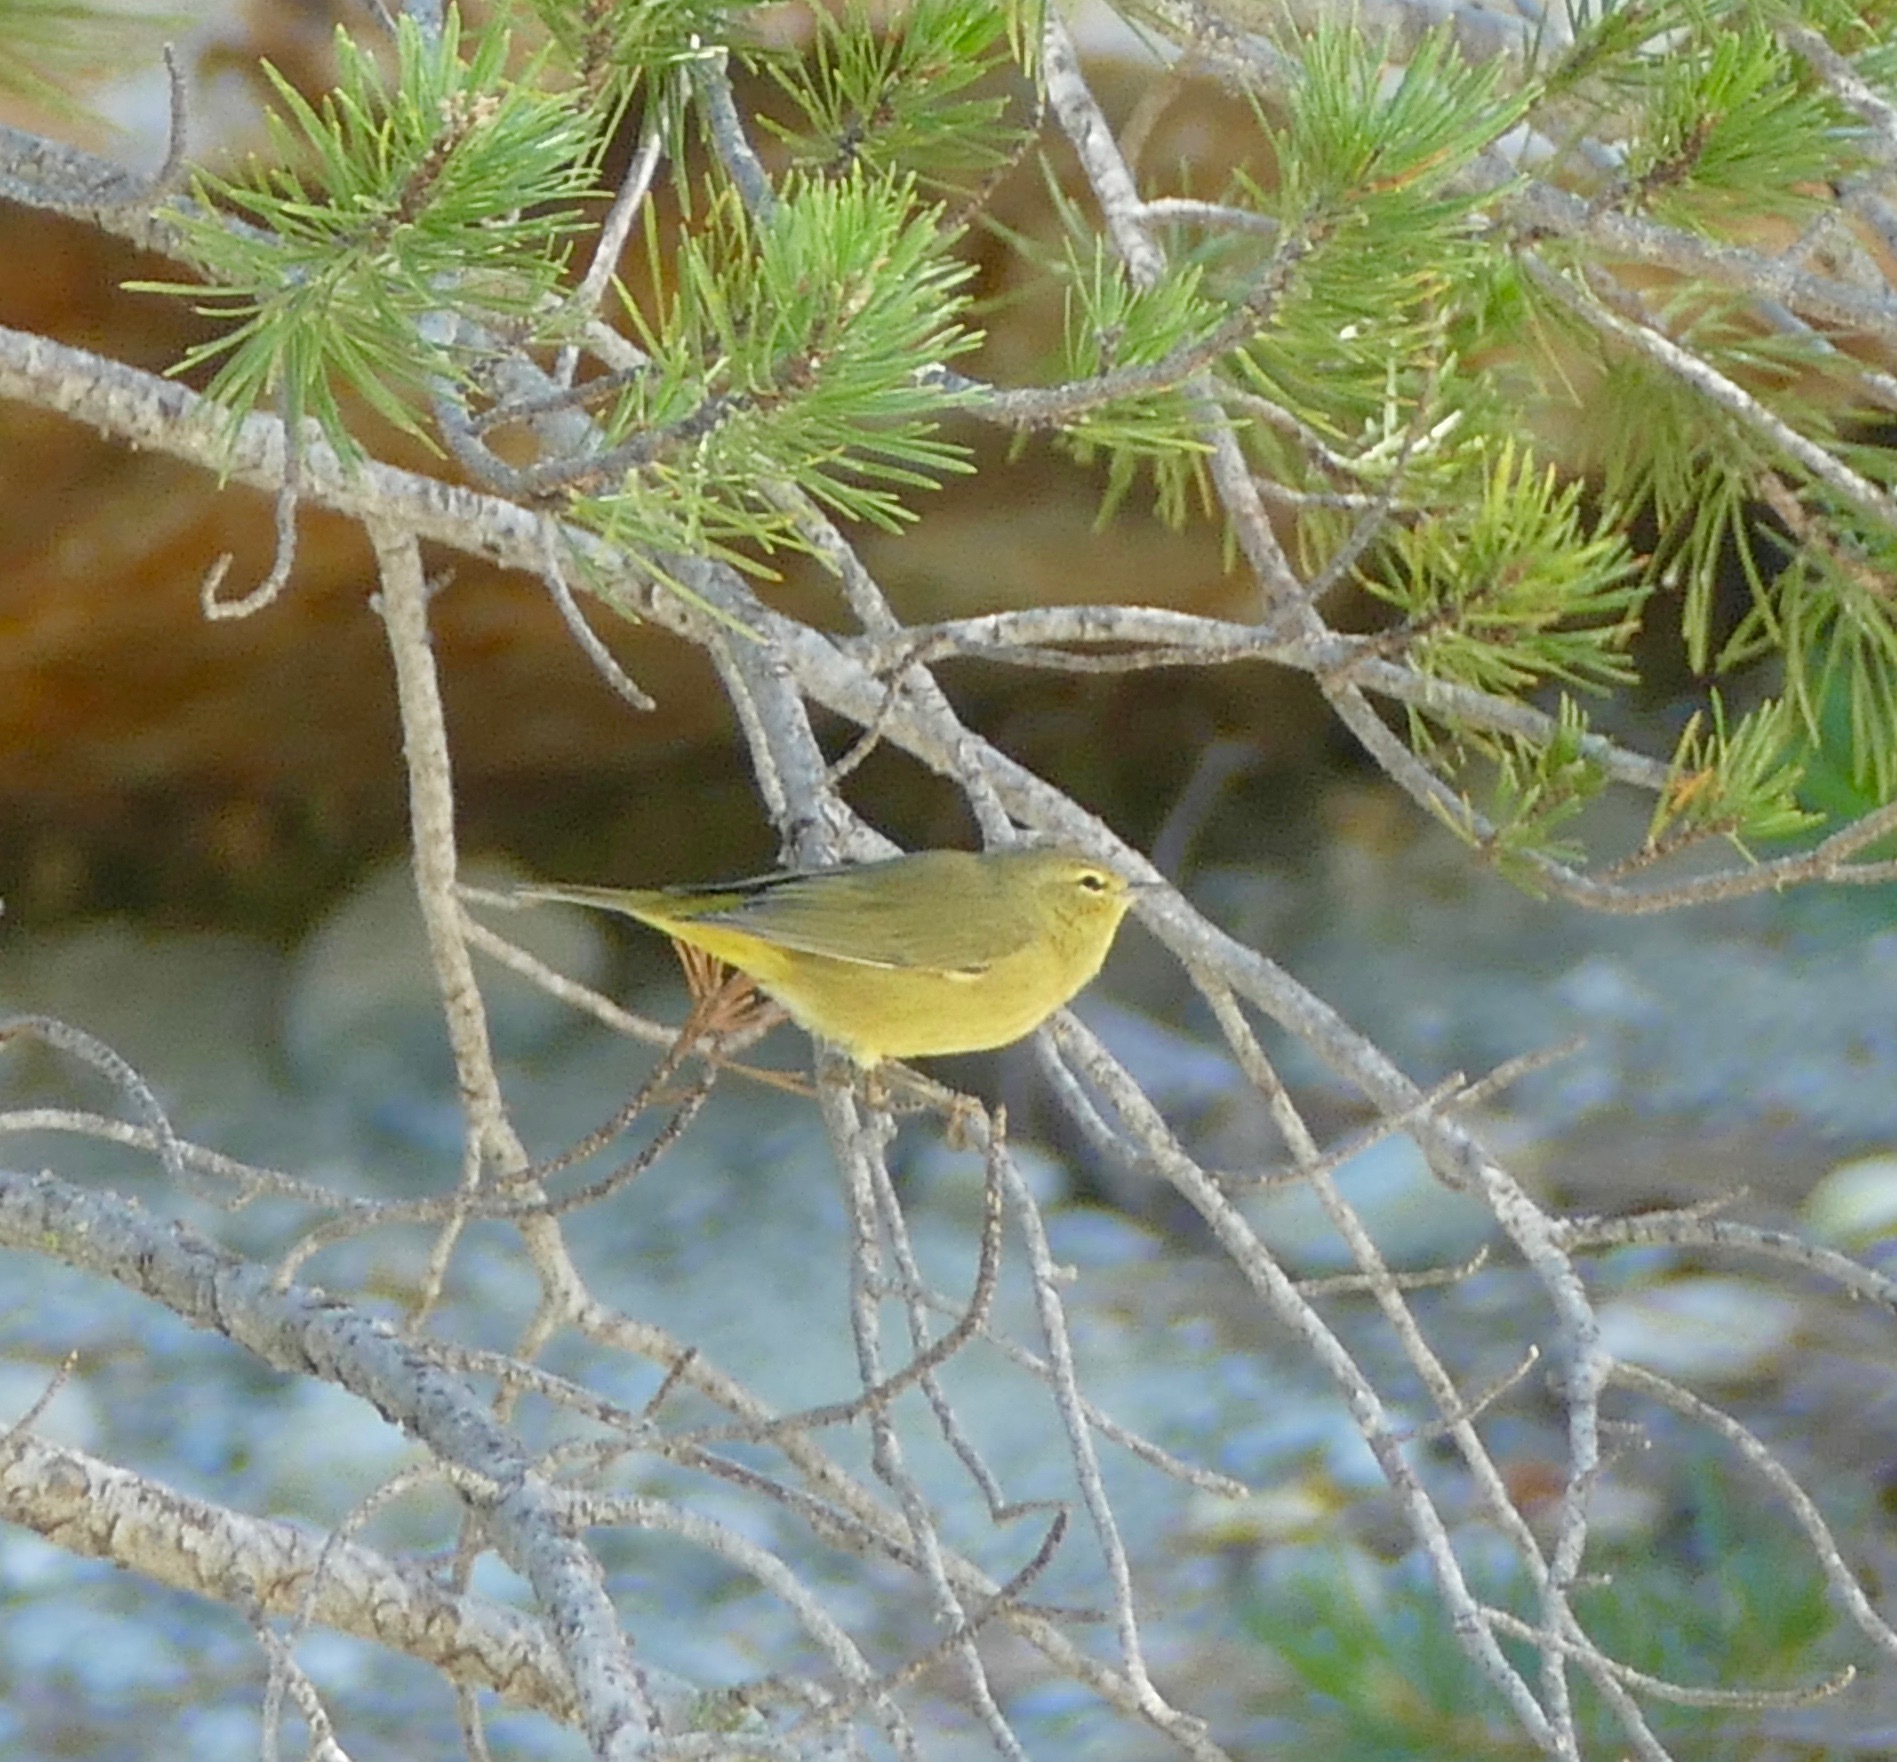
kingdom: Animalia
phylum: Chordata
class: Aves
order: Passeriformes
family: Parulidae
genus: Leiothlypis
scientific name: Leiothlypis celata
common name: Orange-crowned warbler
